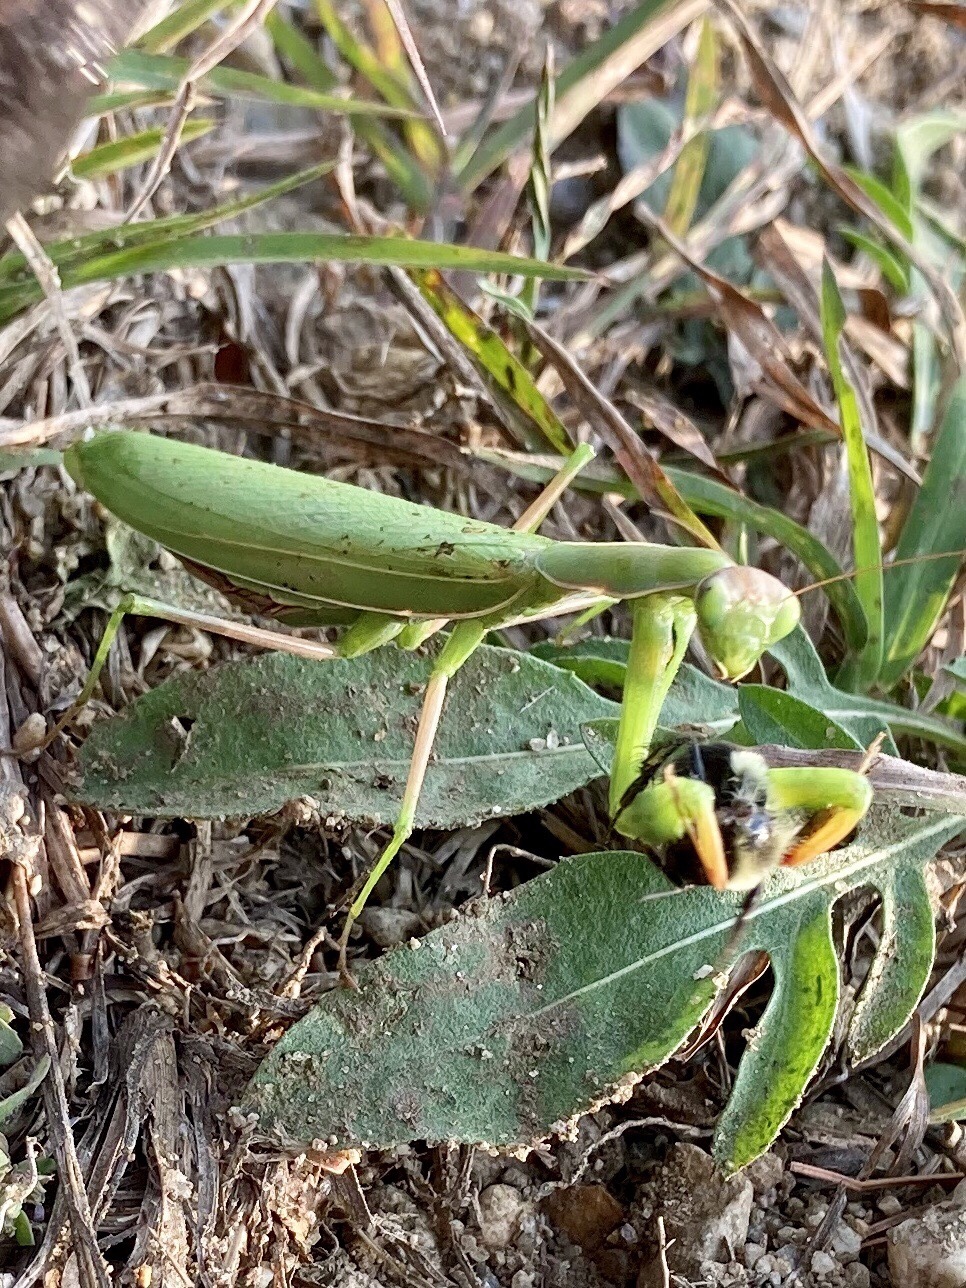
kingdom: Animalia
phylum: Arthropoda
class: Insecta
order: Mantodea
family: Mantidae
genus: Mantis
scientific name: Mantis religiosa
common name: Praying mantis
